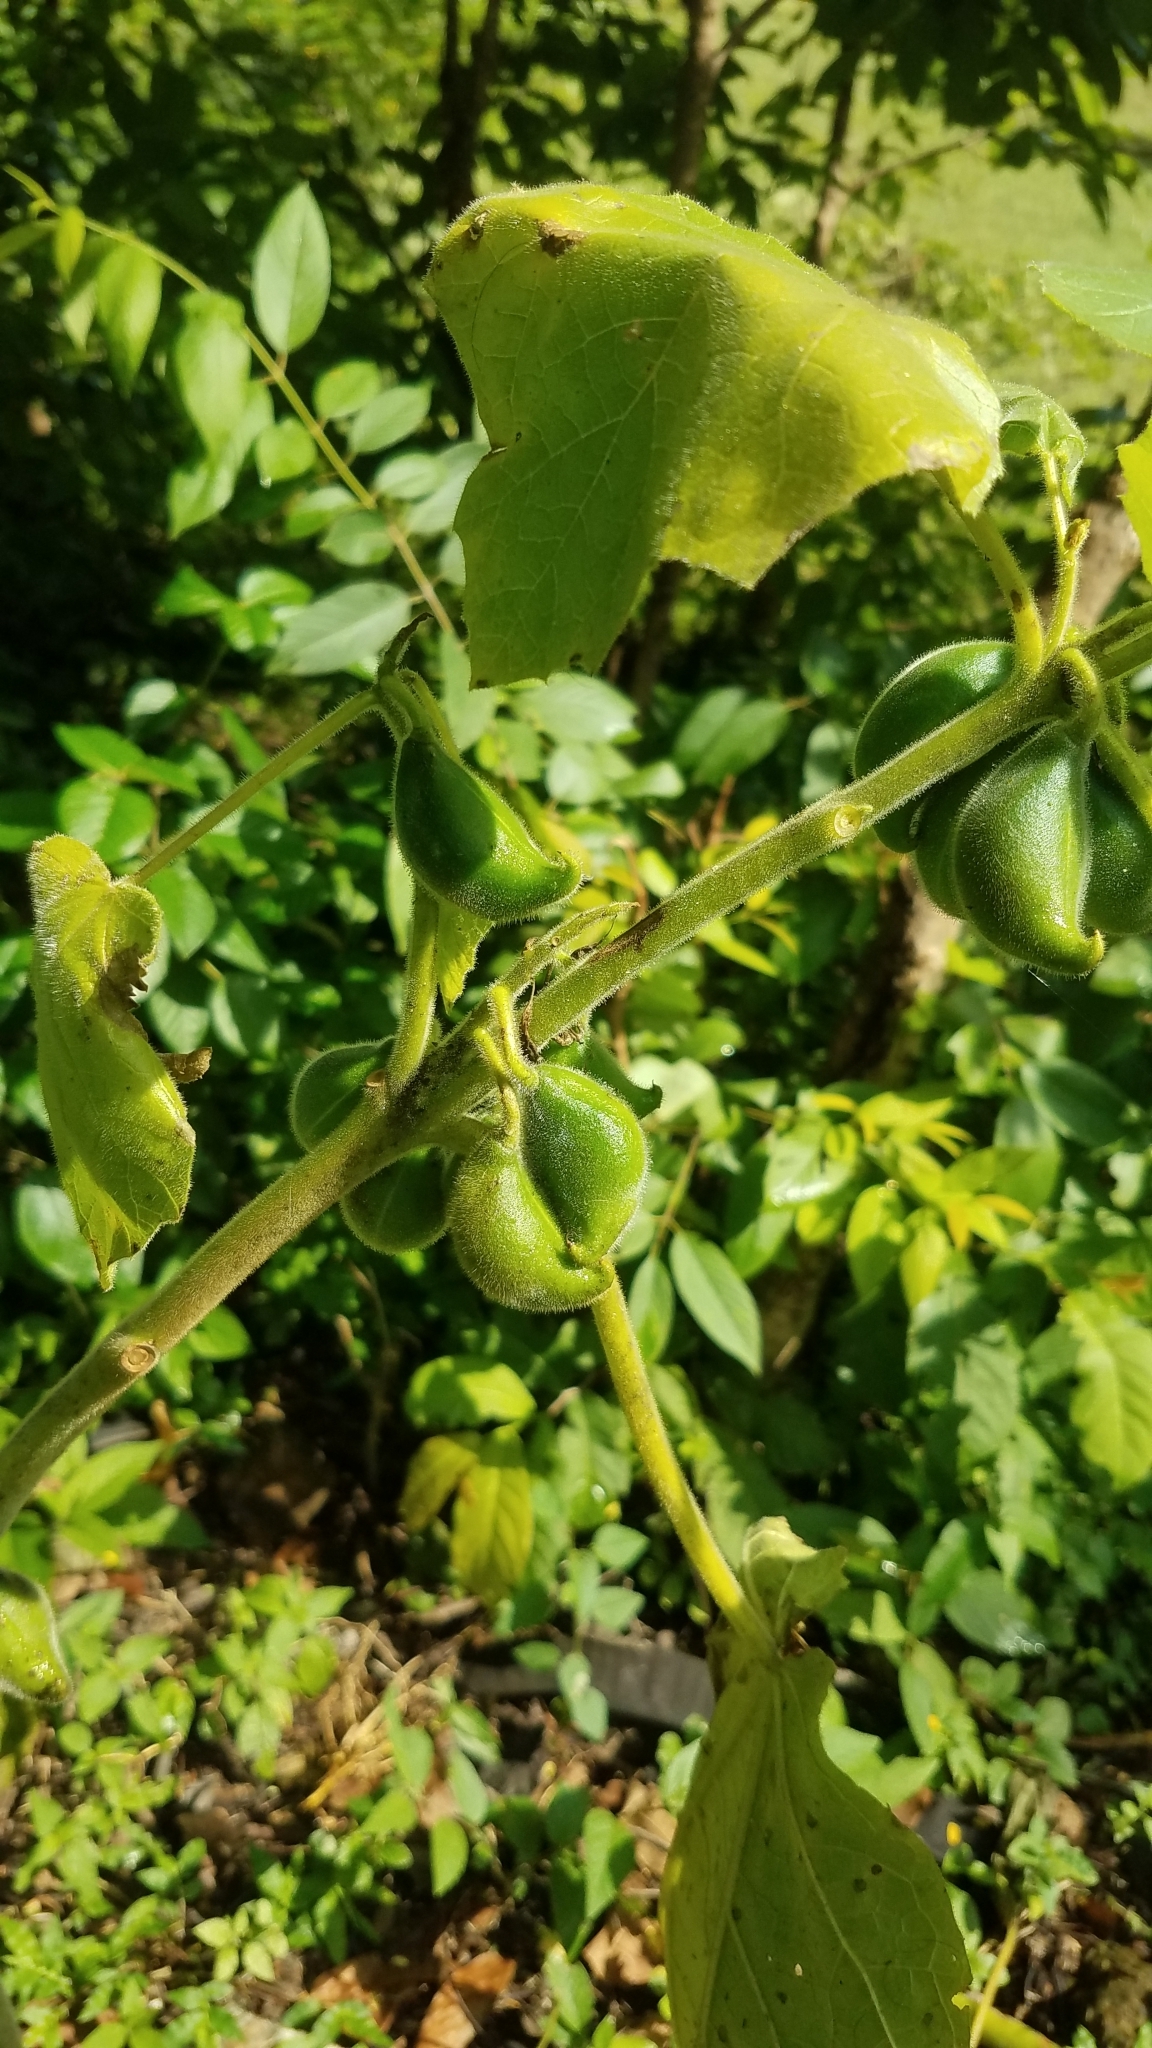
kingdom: Plantae
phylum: Tracheophyta
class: Magnoliopsida
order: Lamiales
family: Martyniaceae
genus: Martynia
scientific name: Martynia annua
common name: Tiger's-claw
